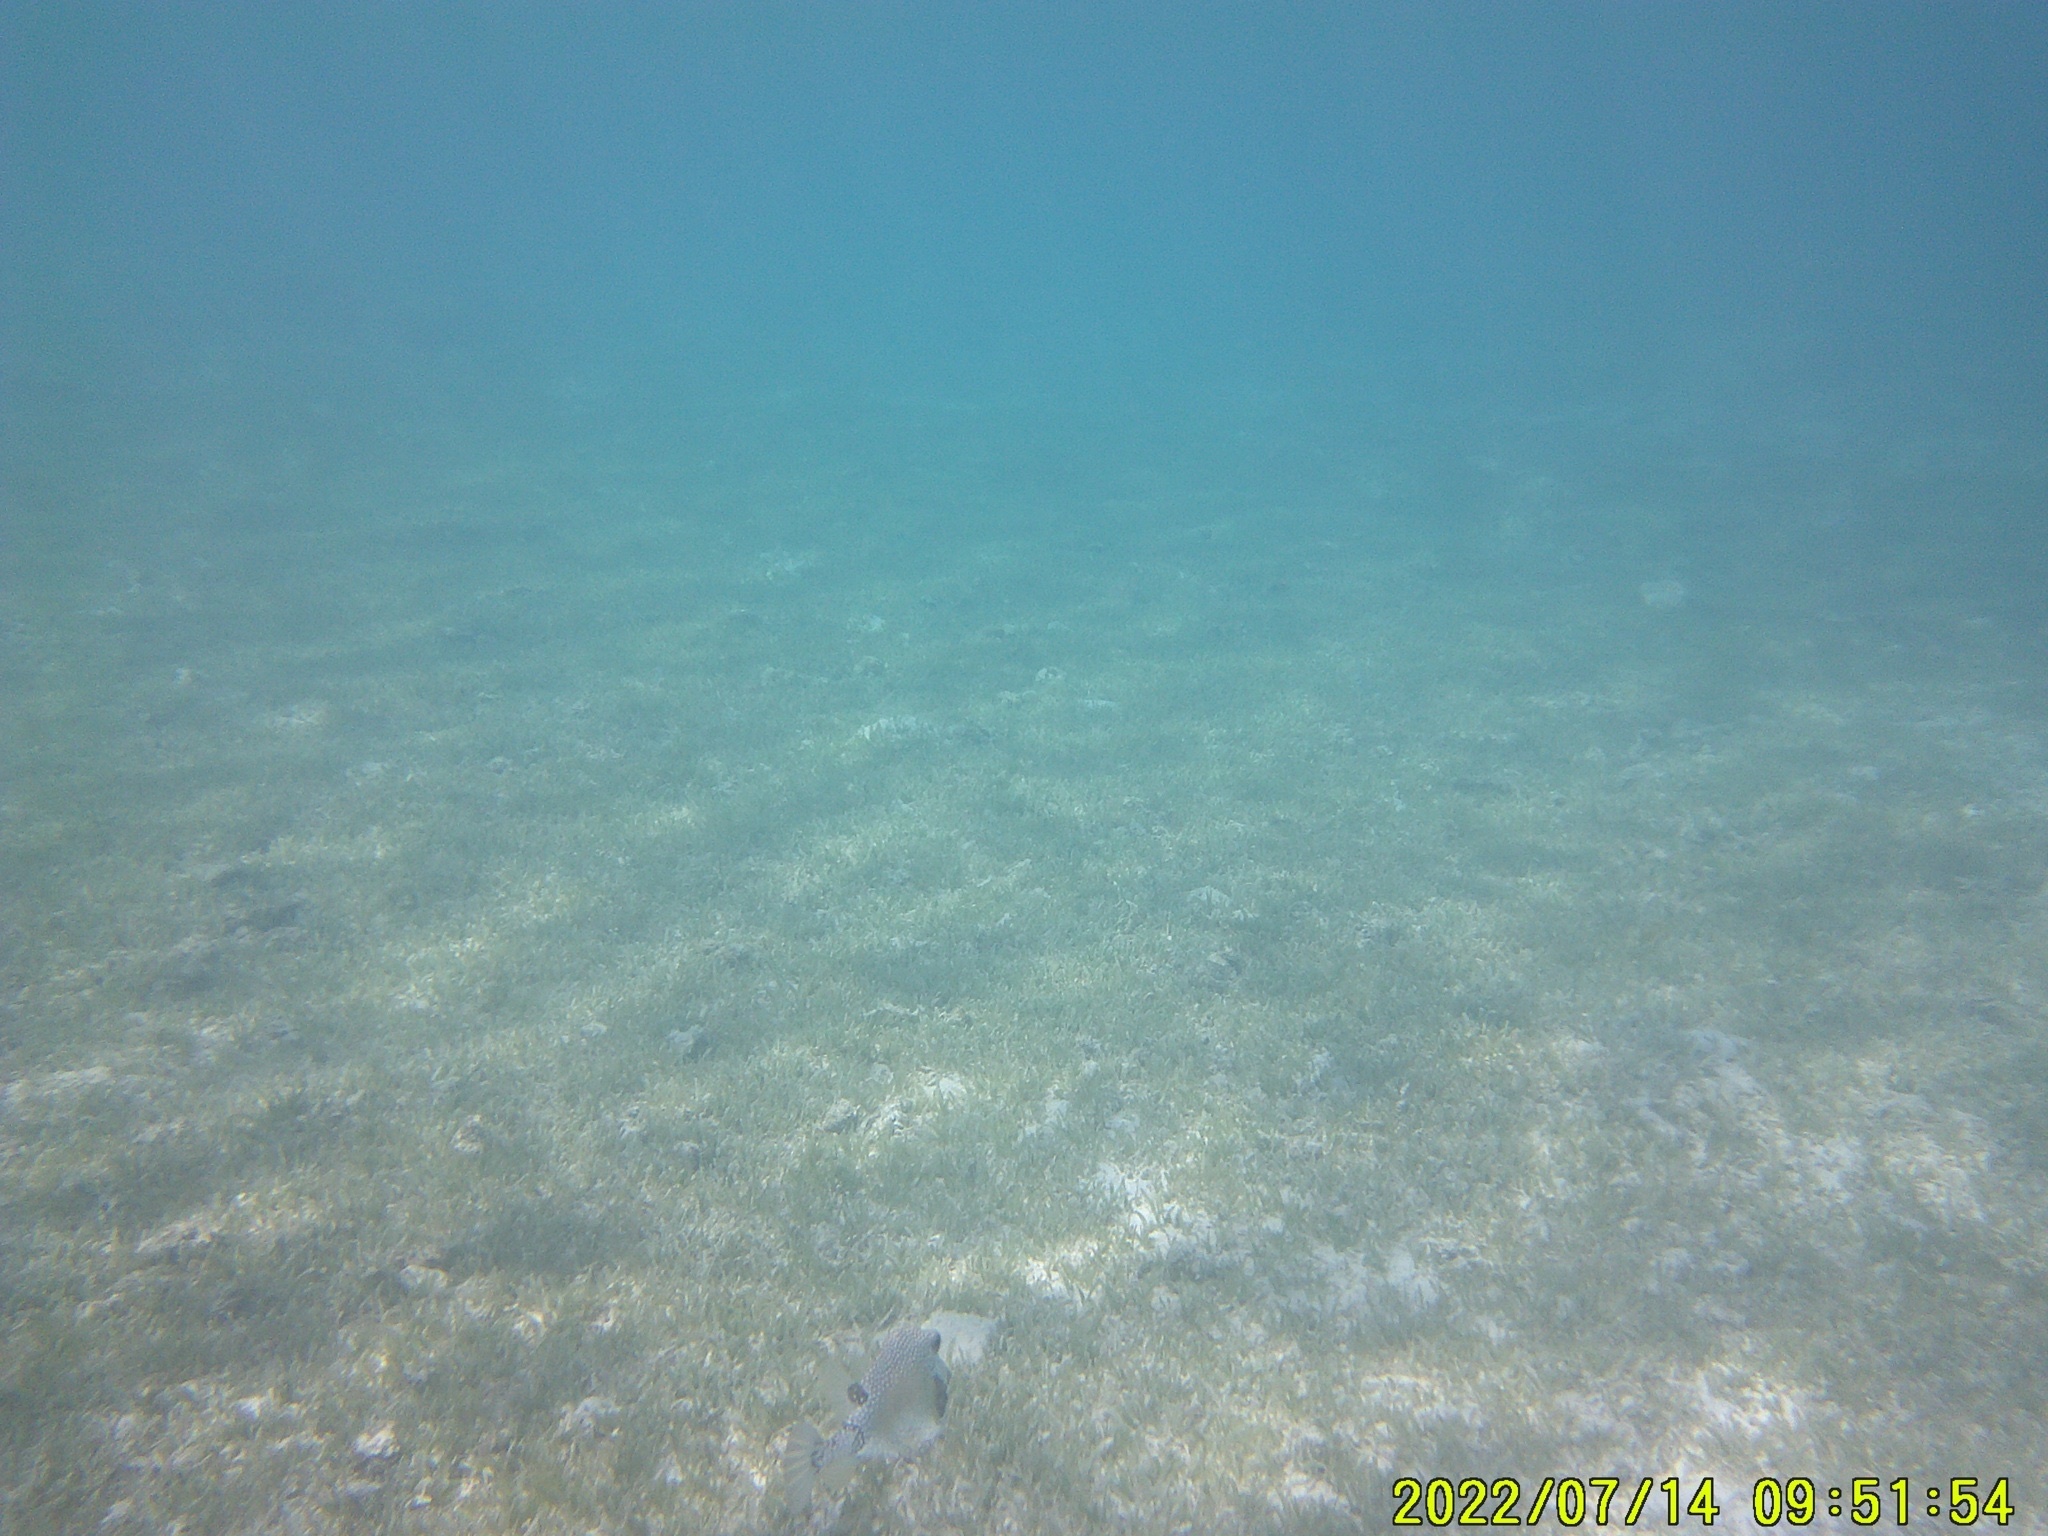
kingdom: Animalia
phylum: Chordata
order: Tetraodontiformes
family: Ostraciidae
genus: Lactophrys
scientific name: Lactophrys triqueter
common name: Smooth trunkfish
